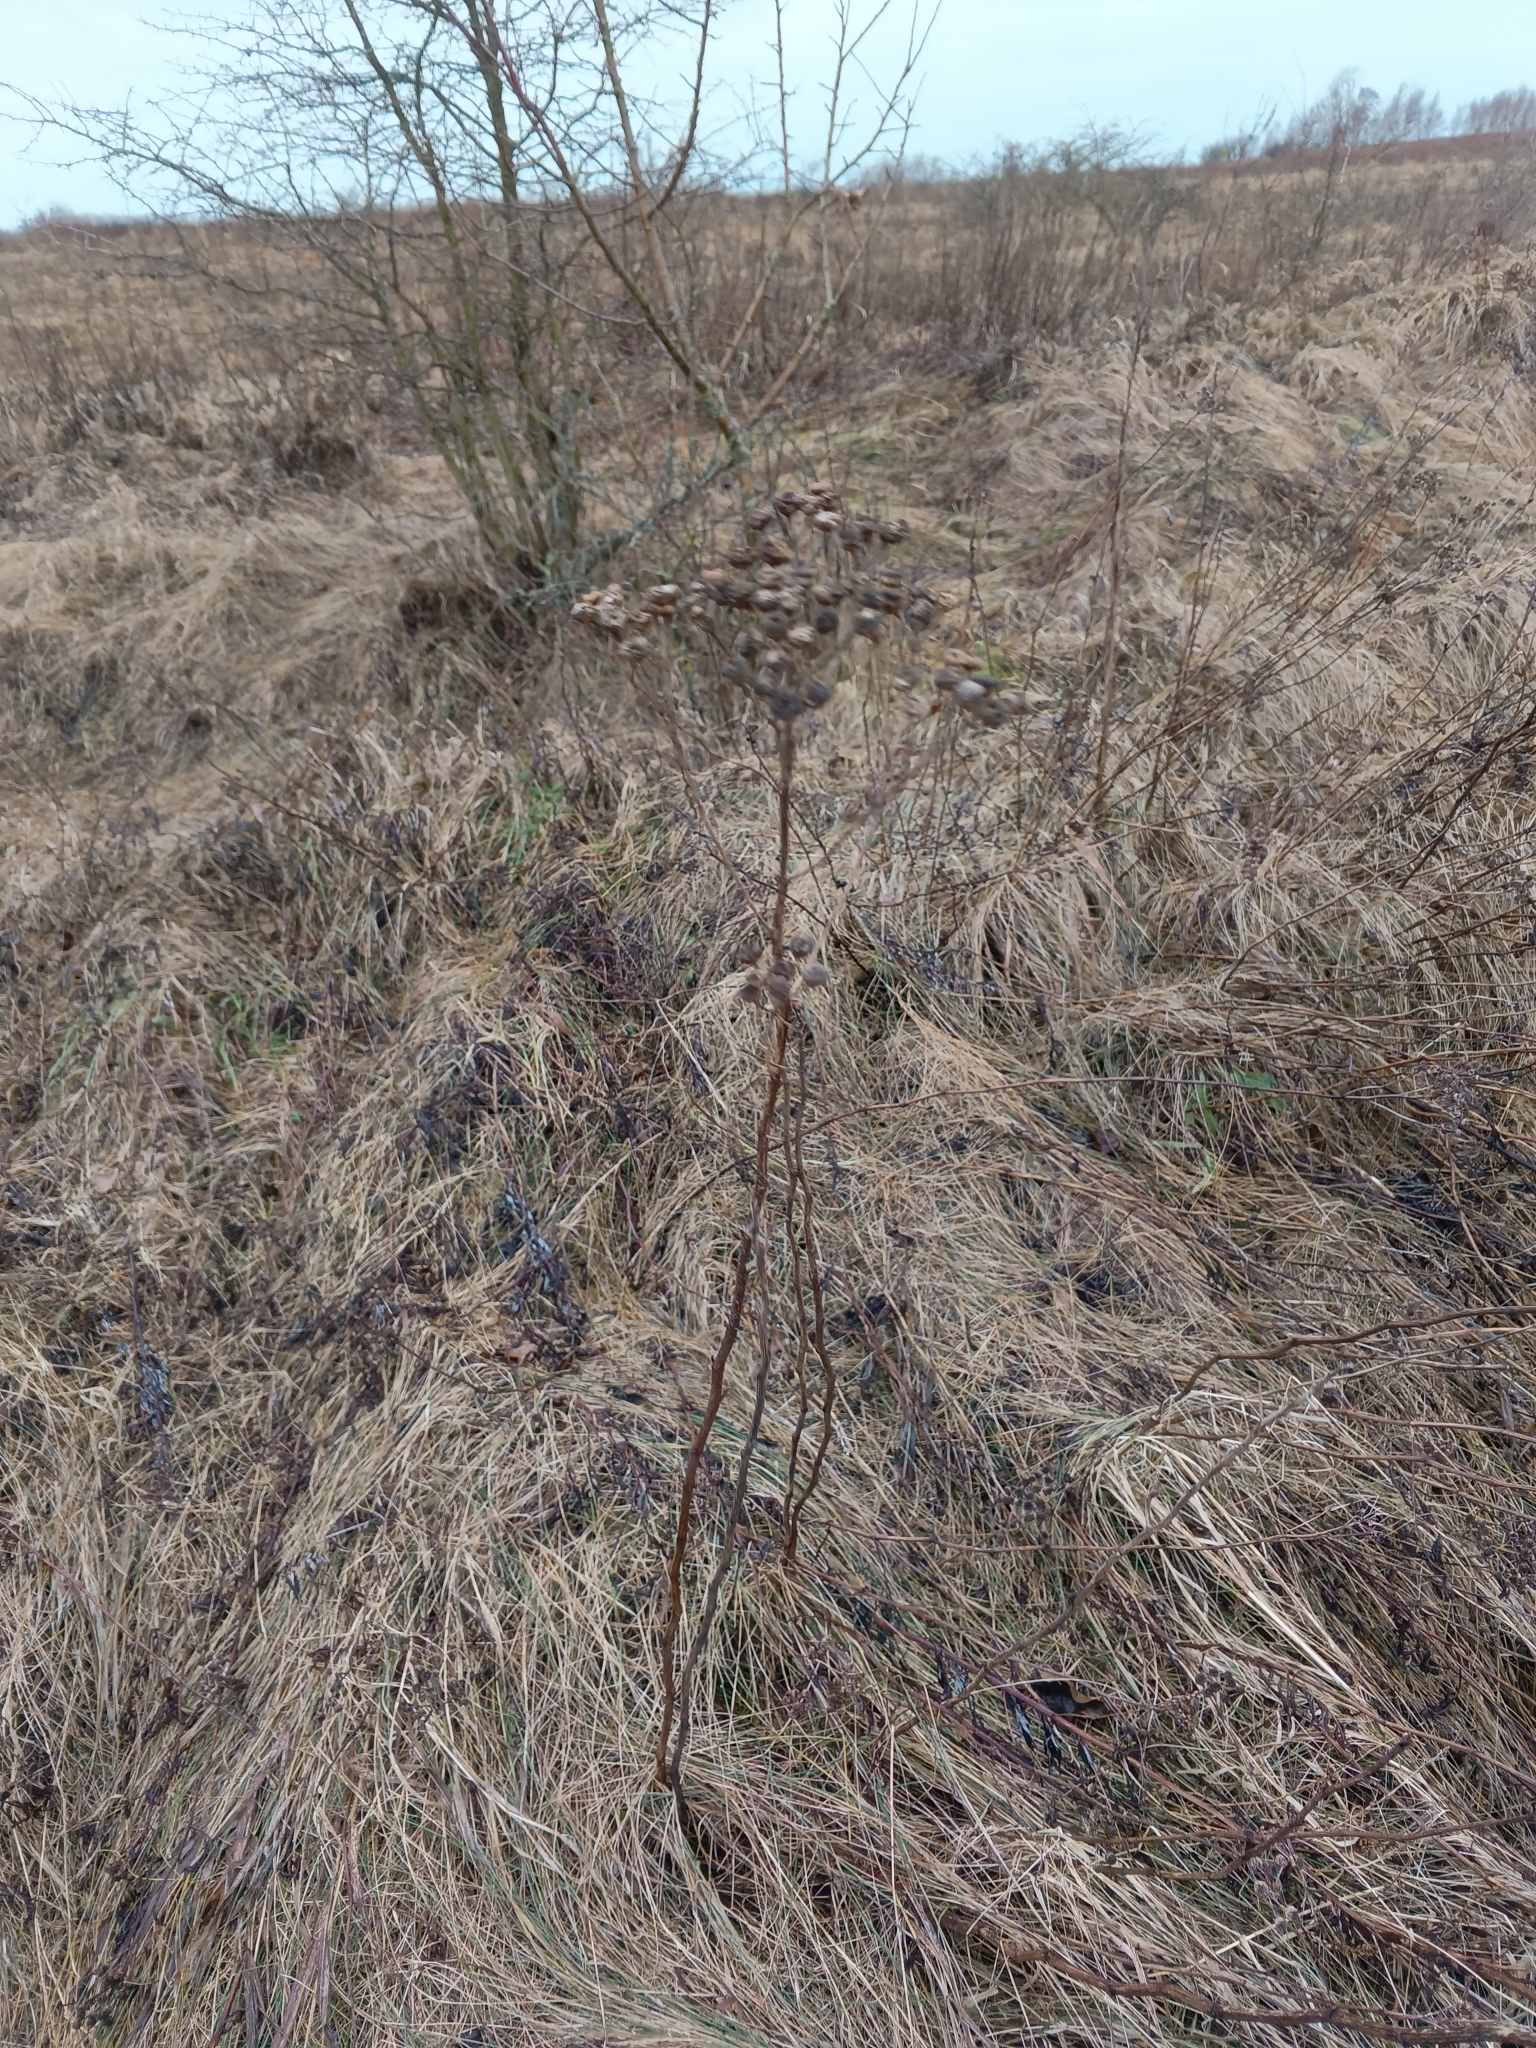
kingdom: Plantae
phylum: Tracheophyta
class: Magnoliopsida
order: Asterales
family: Asteraceae
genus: Tanacetum
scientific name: Tanacetum vulgare
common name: Common tansy
